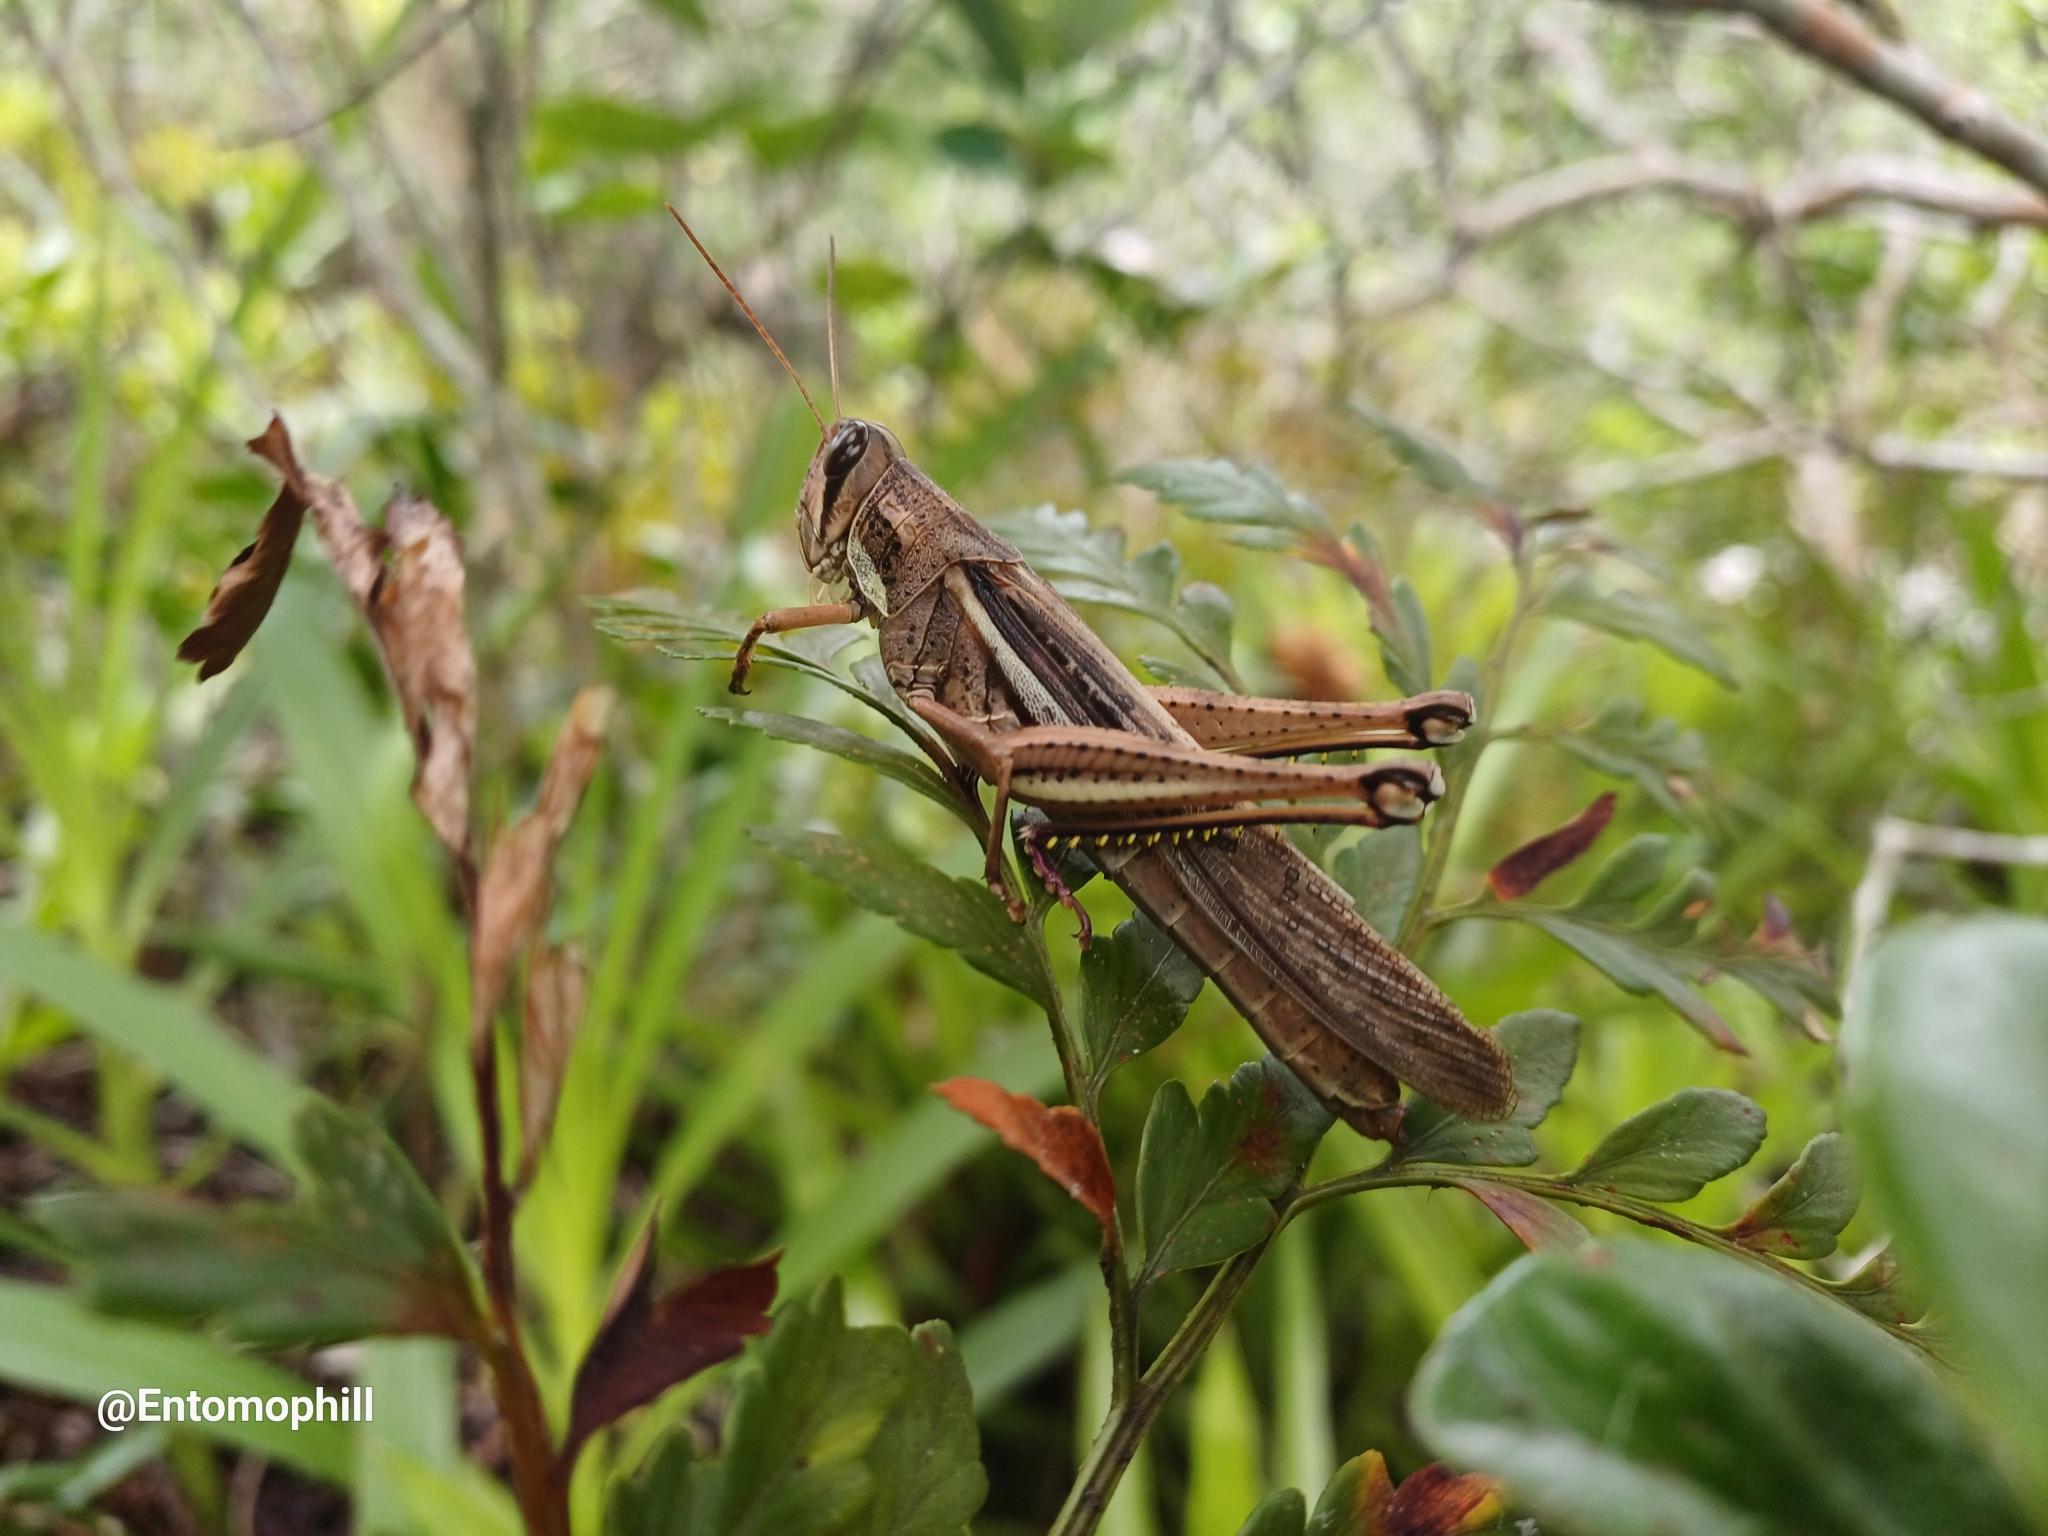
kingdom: Animalia
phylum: Arthropoda
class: Insecta
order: Orthoptera
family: Acrididae
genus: Schistocerca
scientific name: Schistocerca pallens
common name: Bird grasshopper
